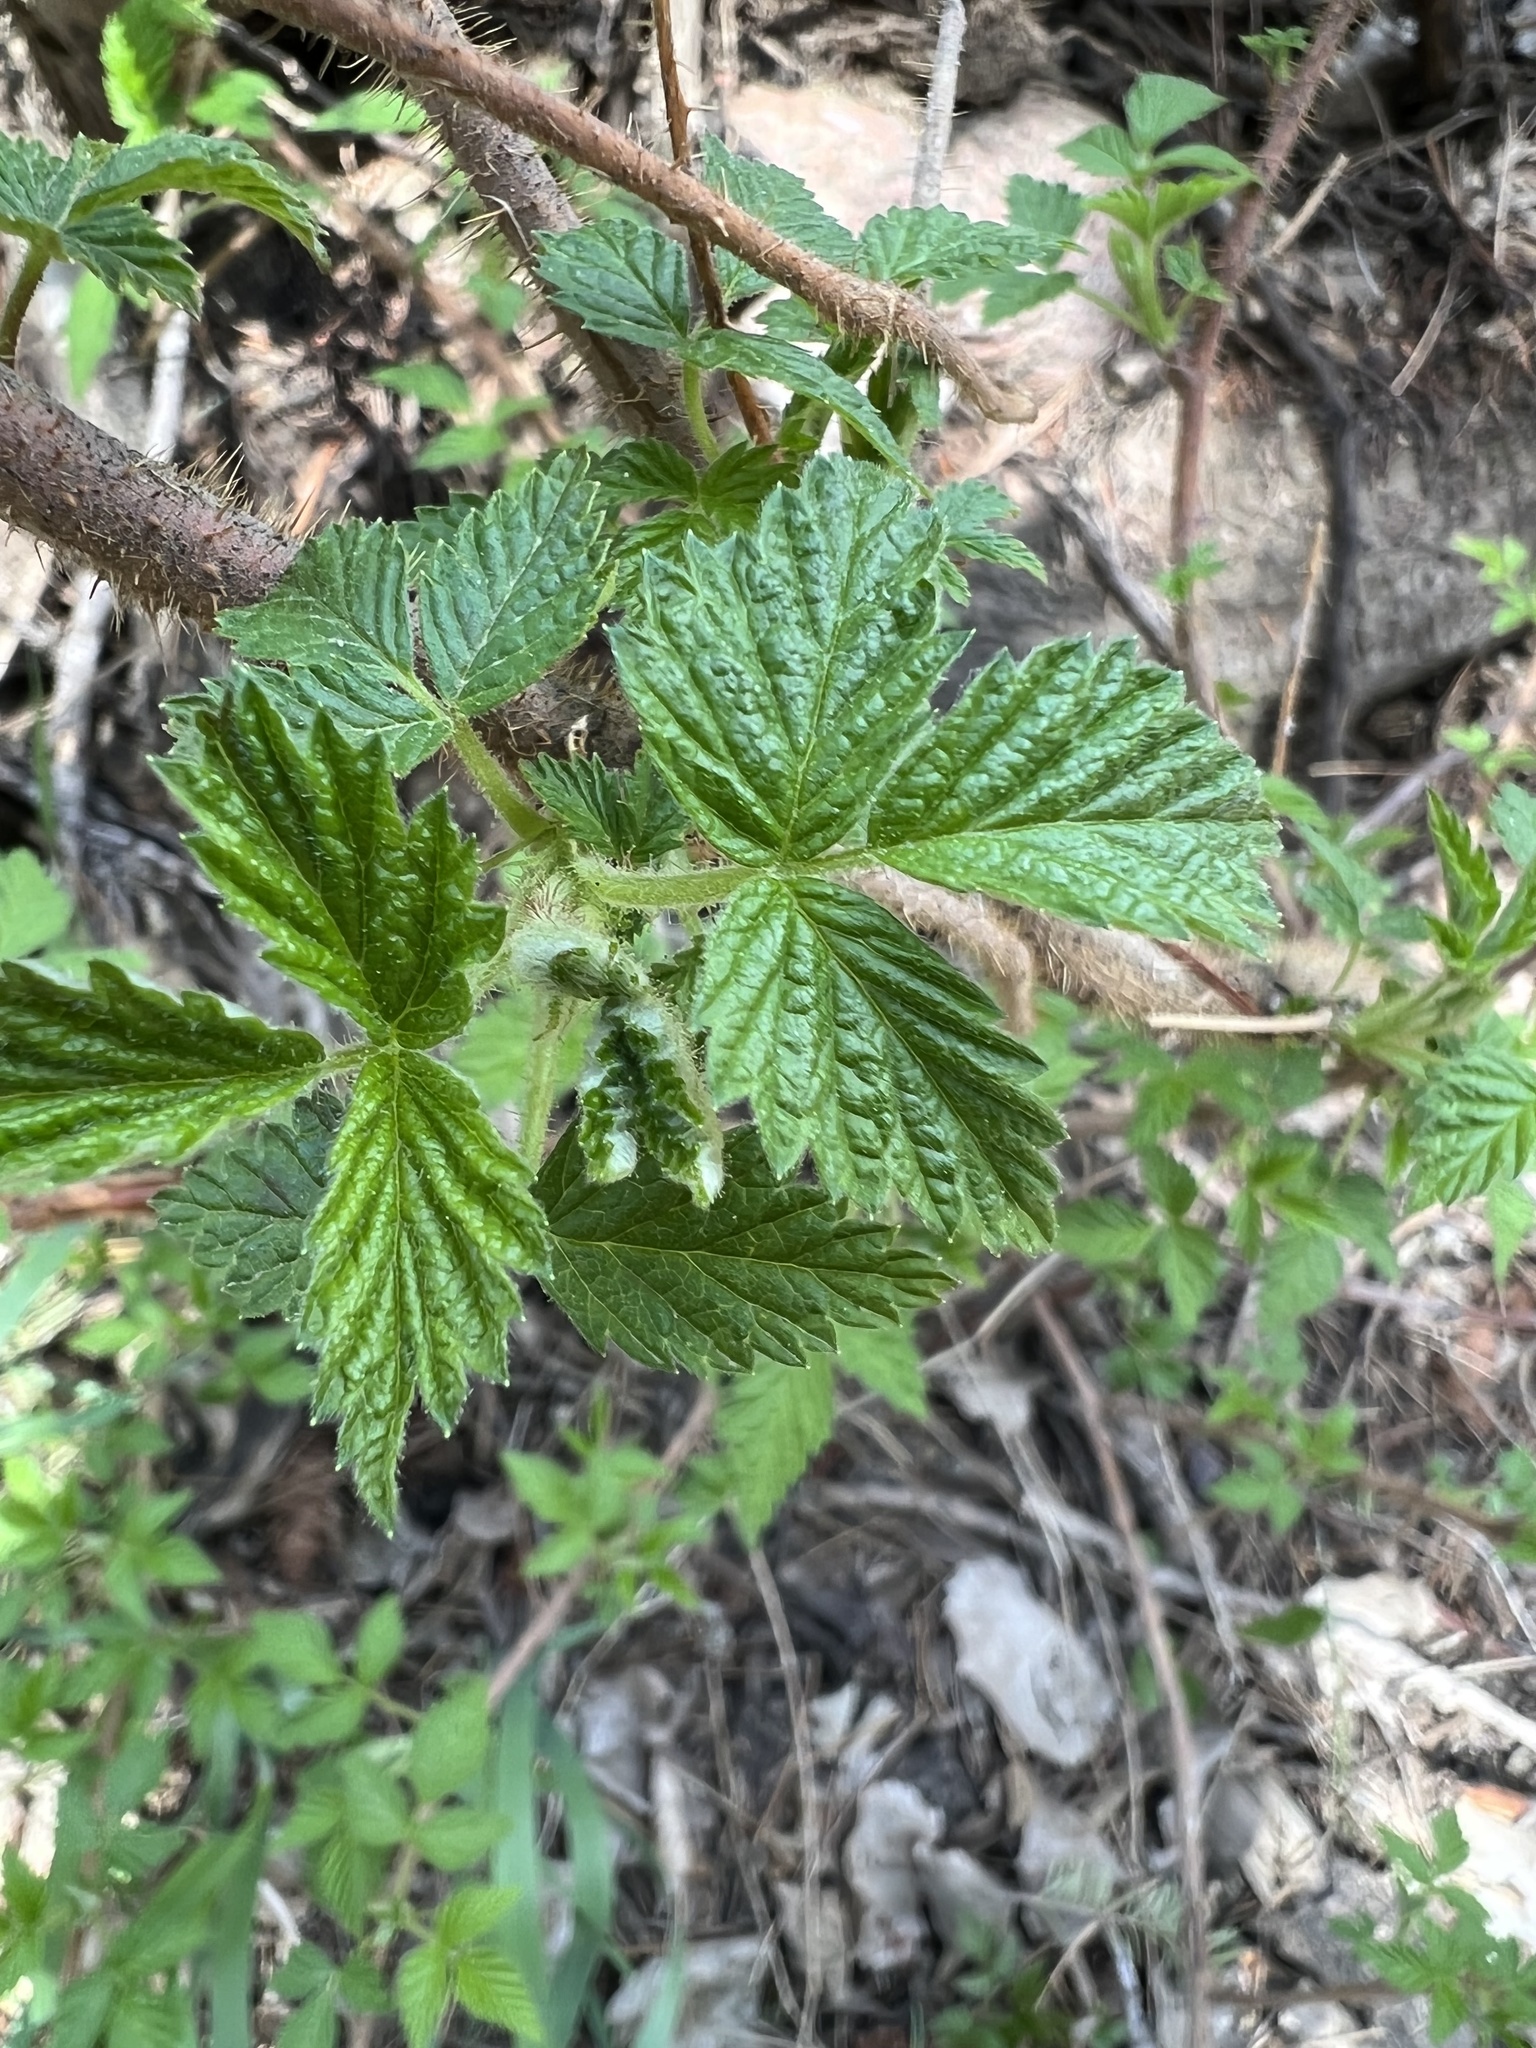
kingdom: Plantae
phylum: Tracheophyta
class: Magnoliopsida
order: Rosales
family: Rosaceae
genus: Rubus
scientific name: Rubus idaeus
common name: Raspberry
